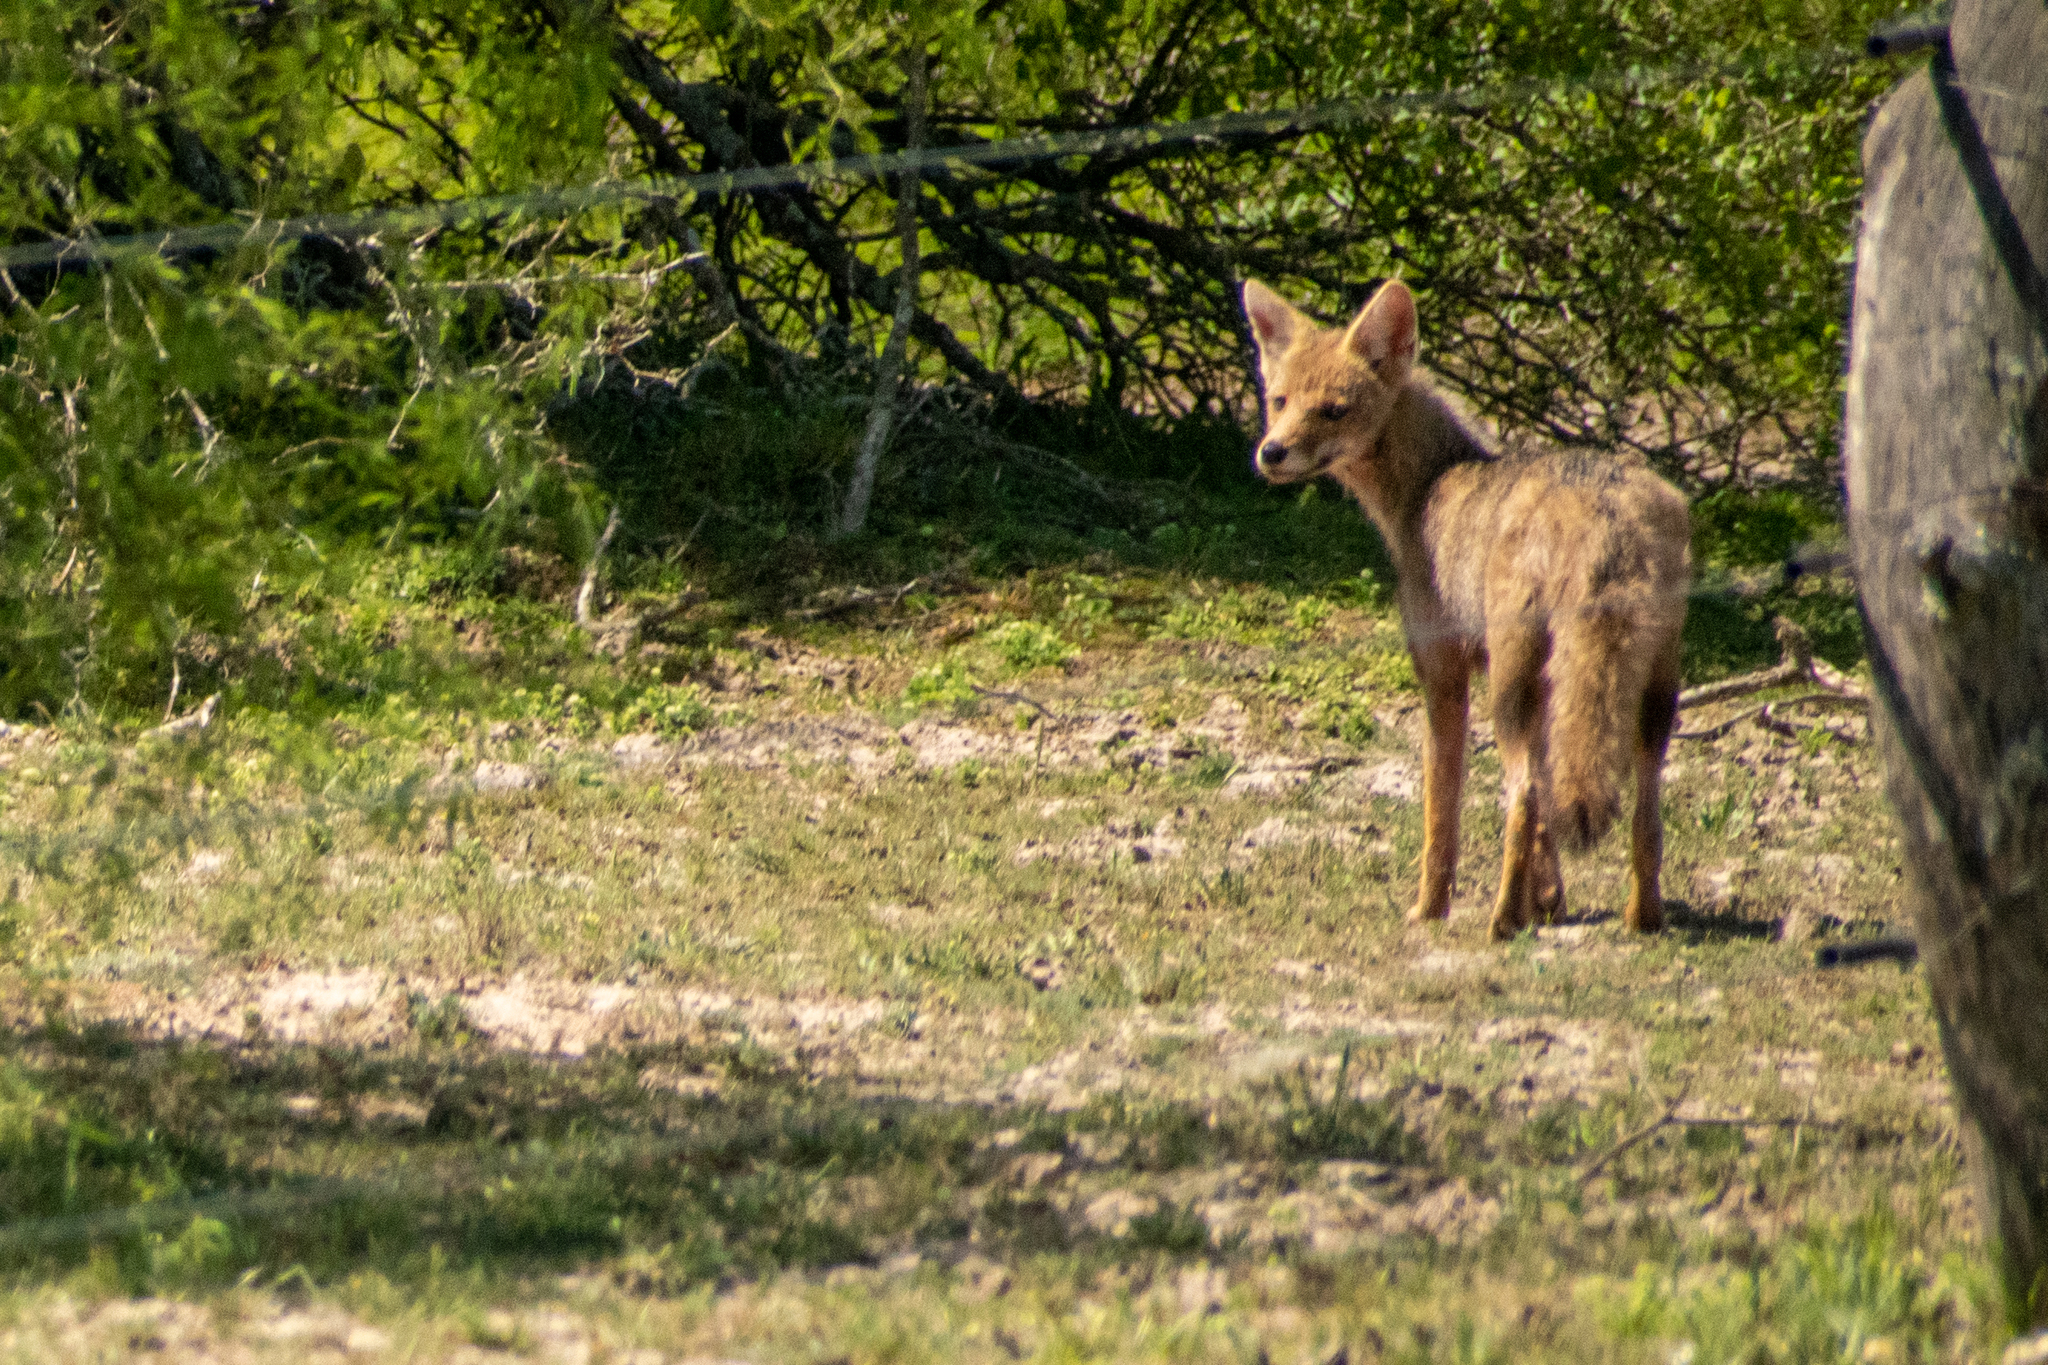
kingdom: Animalia
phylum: Chordata
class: Mammalia
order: Carnivora
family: Canidae
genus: Lycalopex
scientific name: Lycalopex gymnocercus
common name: Pampas fox
